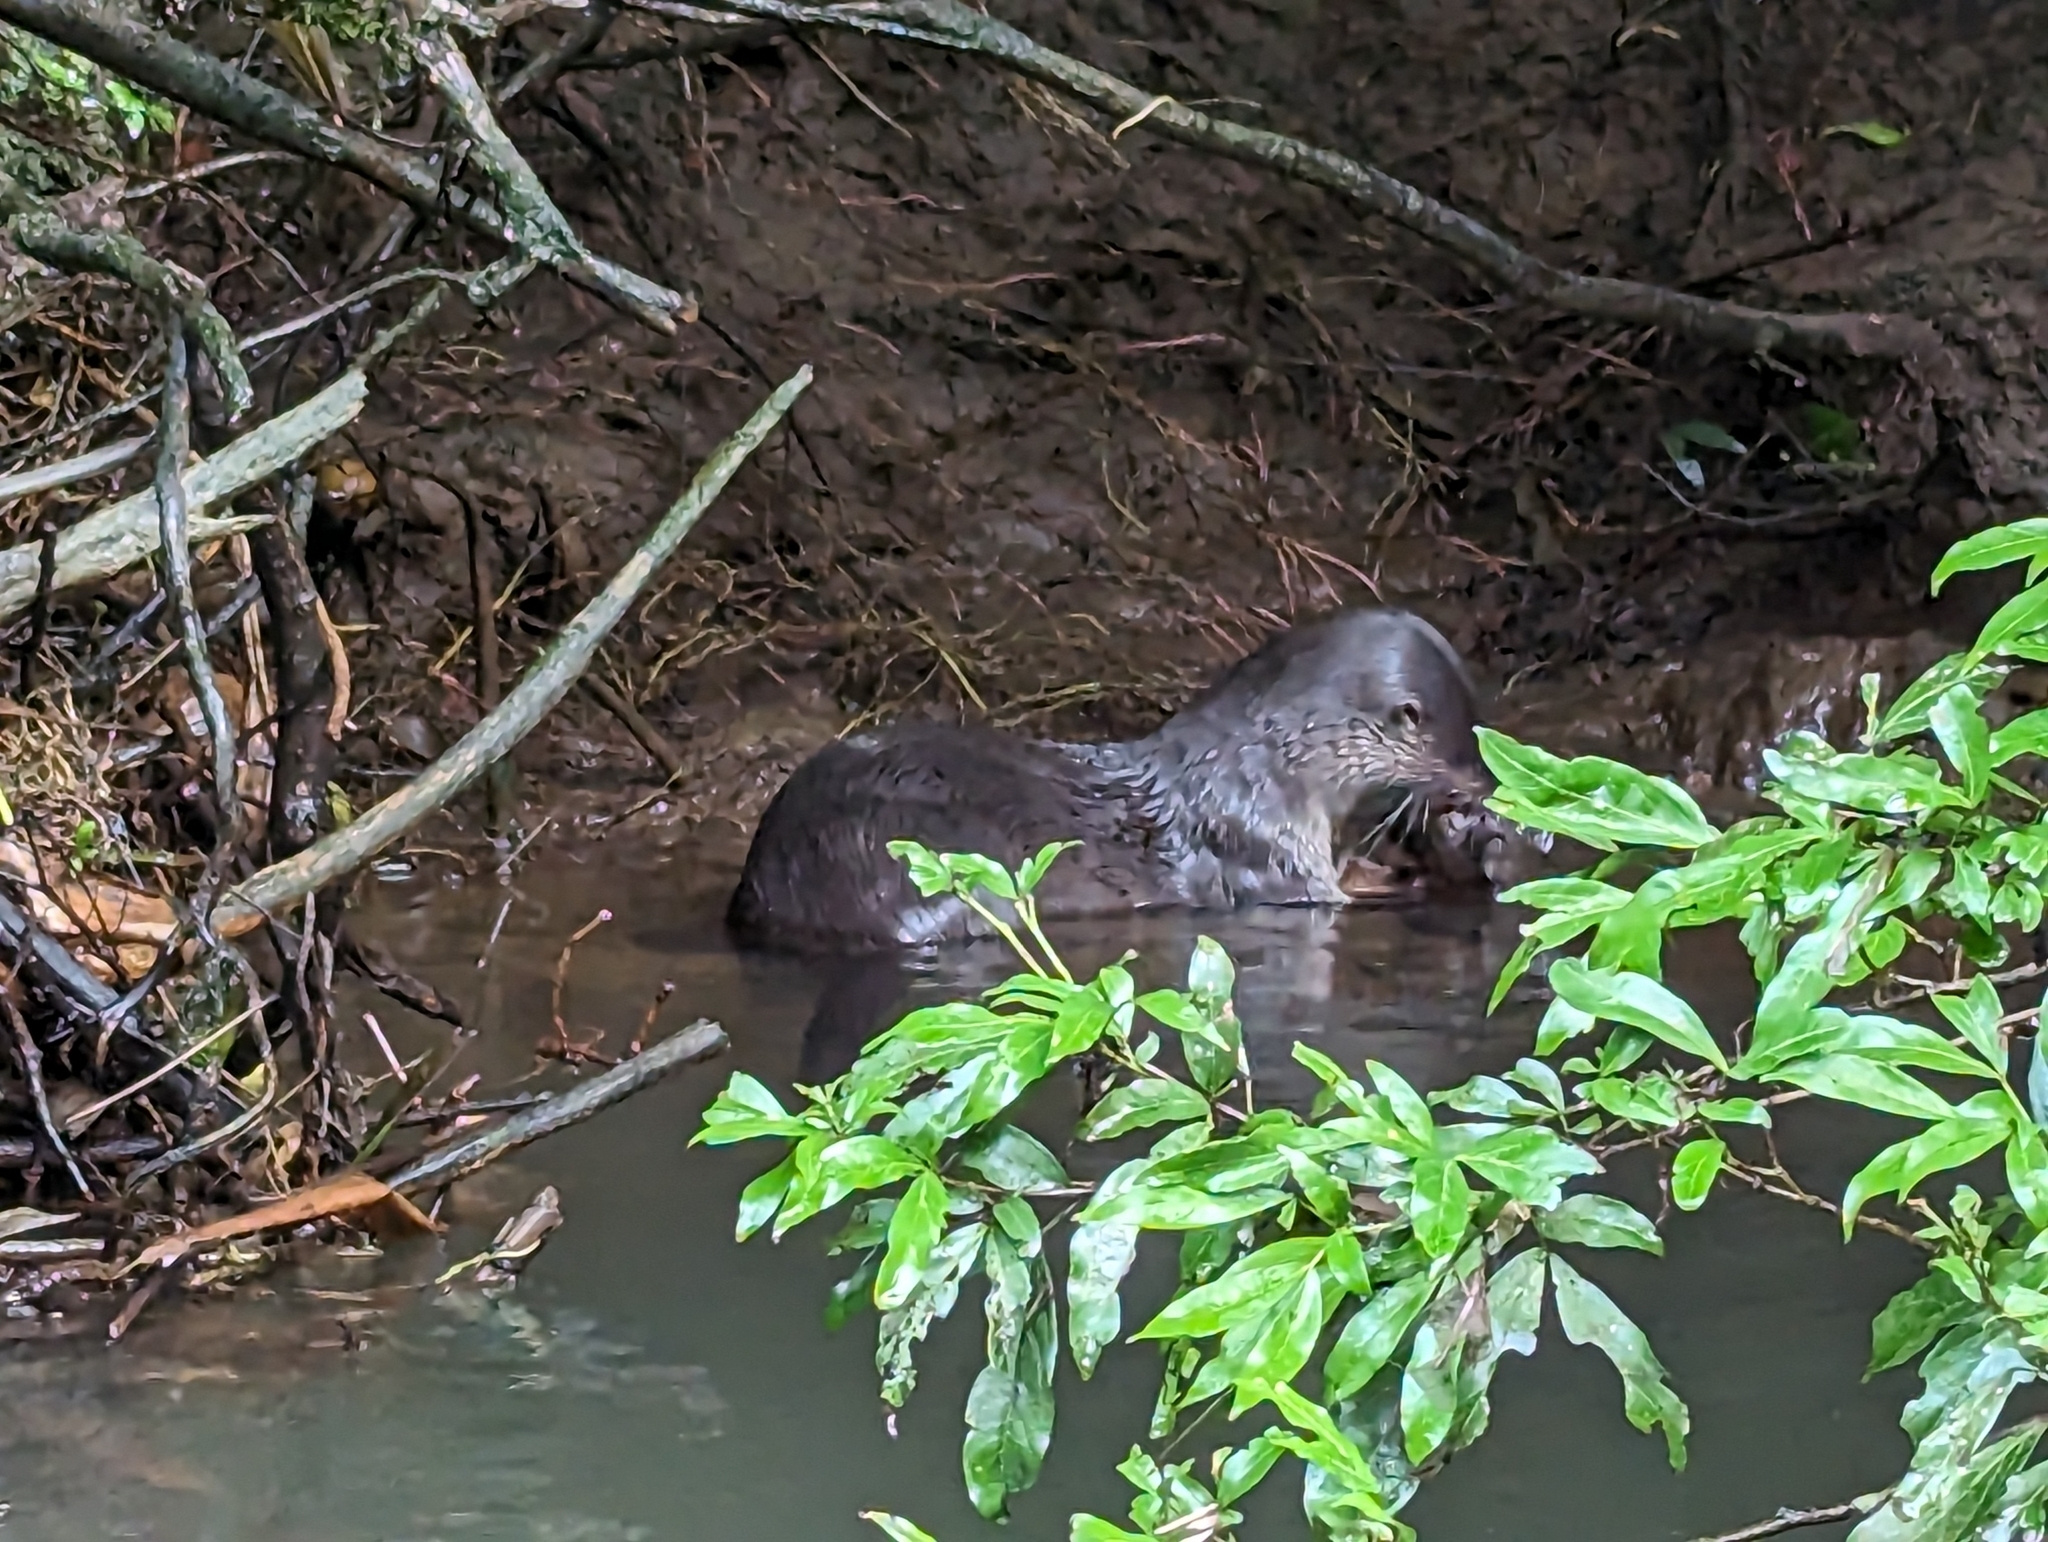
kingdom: Animalia
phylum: Chordata
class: Mammalia
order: Carnivora
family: Mustelidae
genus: Lontra
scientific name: Lontra longicaudis
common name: Neotropical otter
